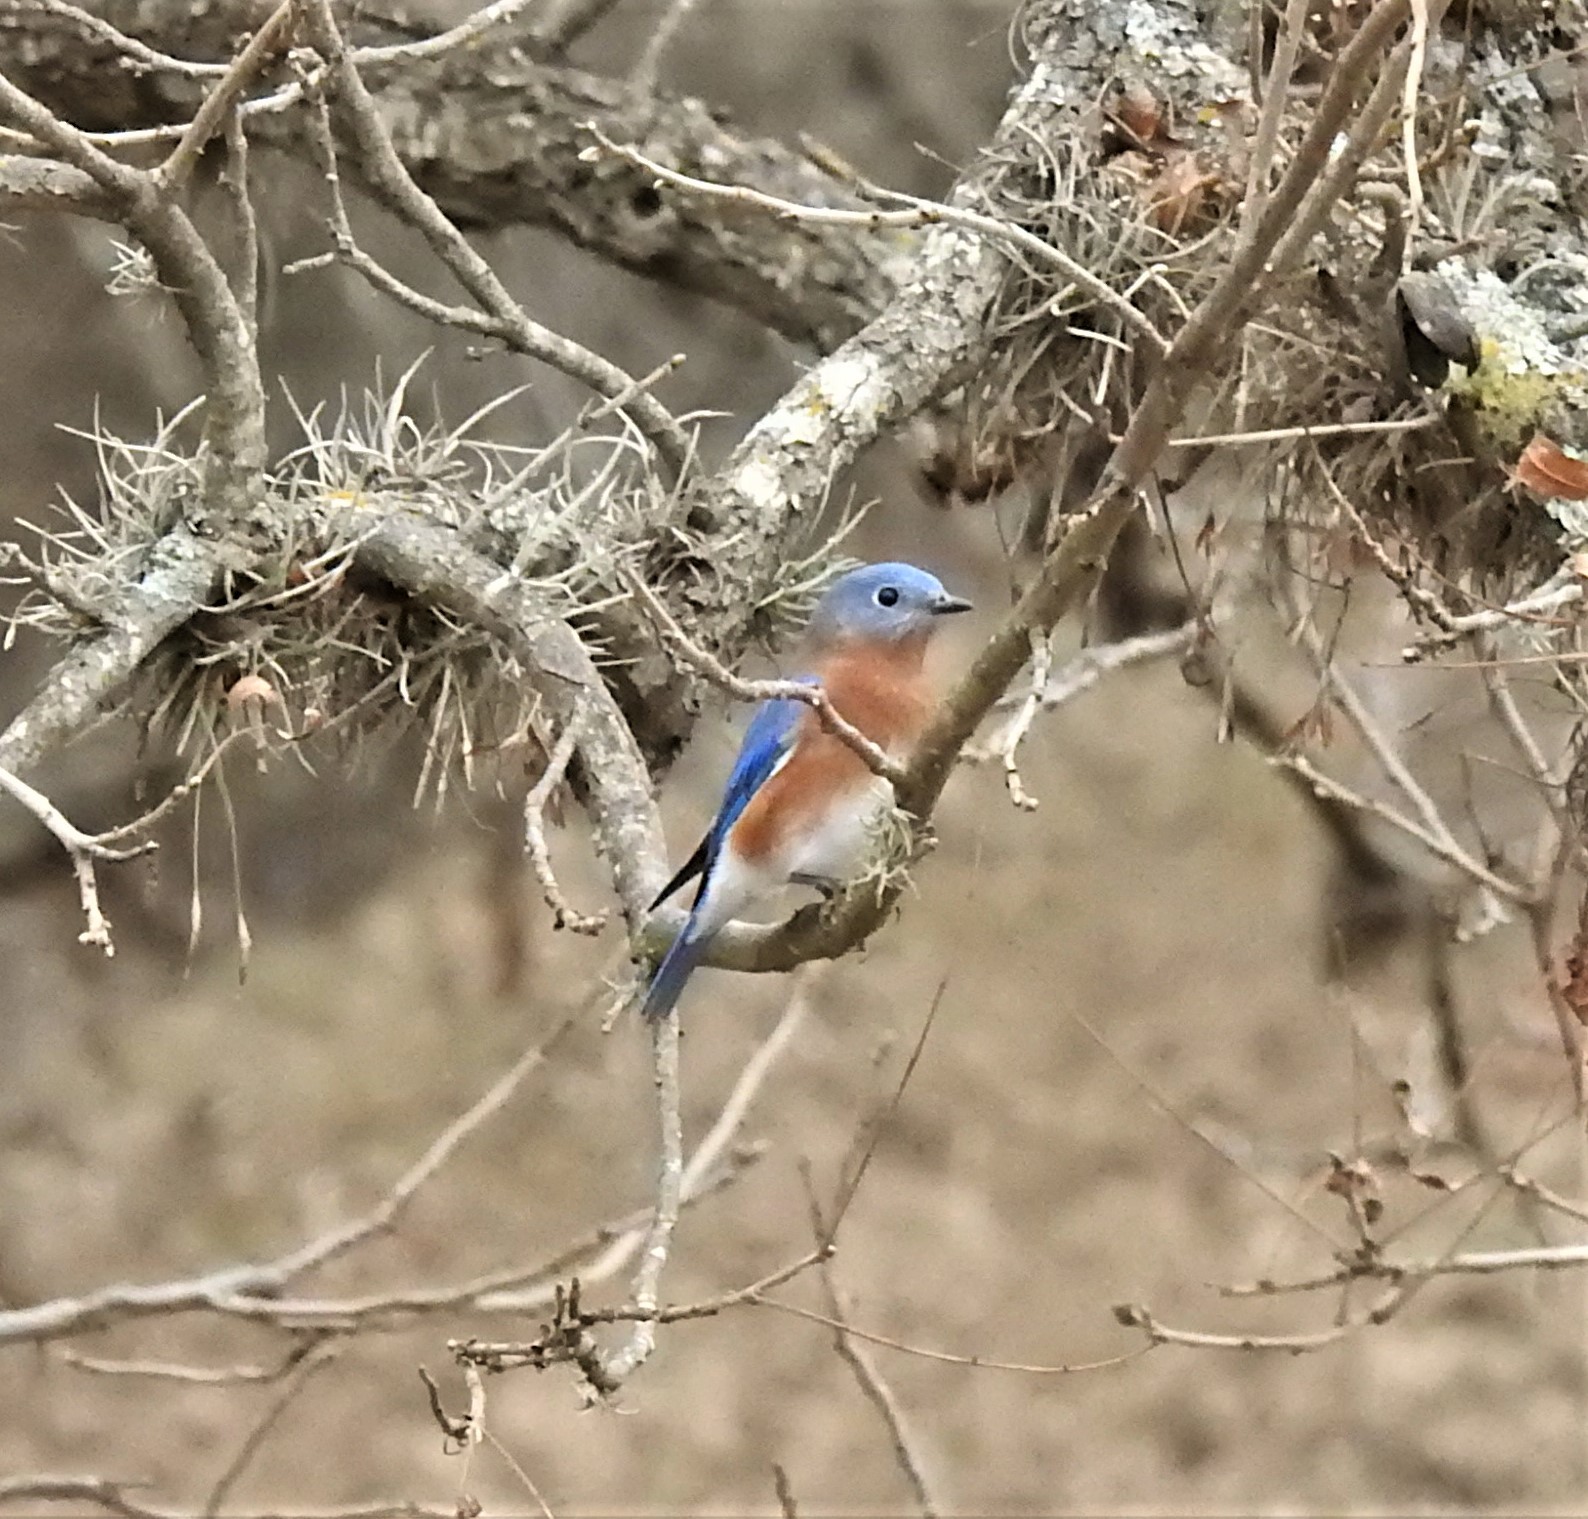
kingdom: Animalia
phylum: Chordata
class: Aves
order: Passeriformes
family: Turdidae
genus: Sialia
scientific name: Sialia sialis
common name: Eastern bluebird
